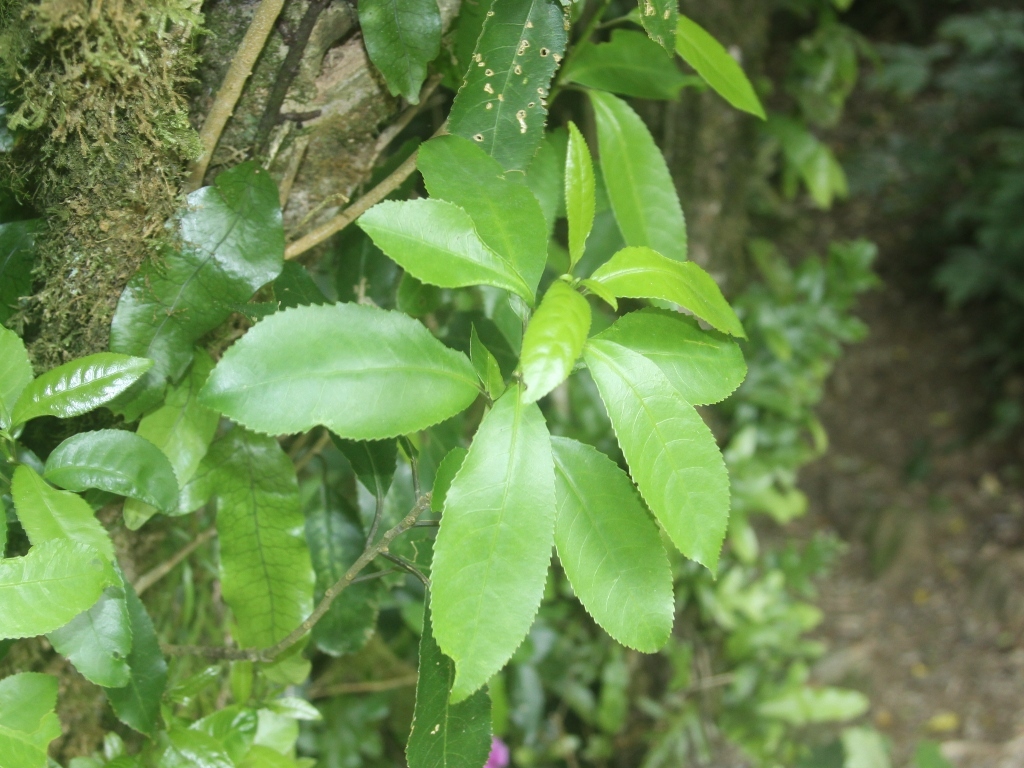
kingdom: Plantae
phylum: Tracheophyta
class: Magnoliopsida
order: Malpighiales
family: Violaceae
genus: Melicytus
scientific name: Melicytus ramiflorus
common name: Mahoe
